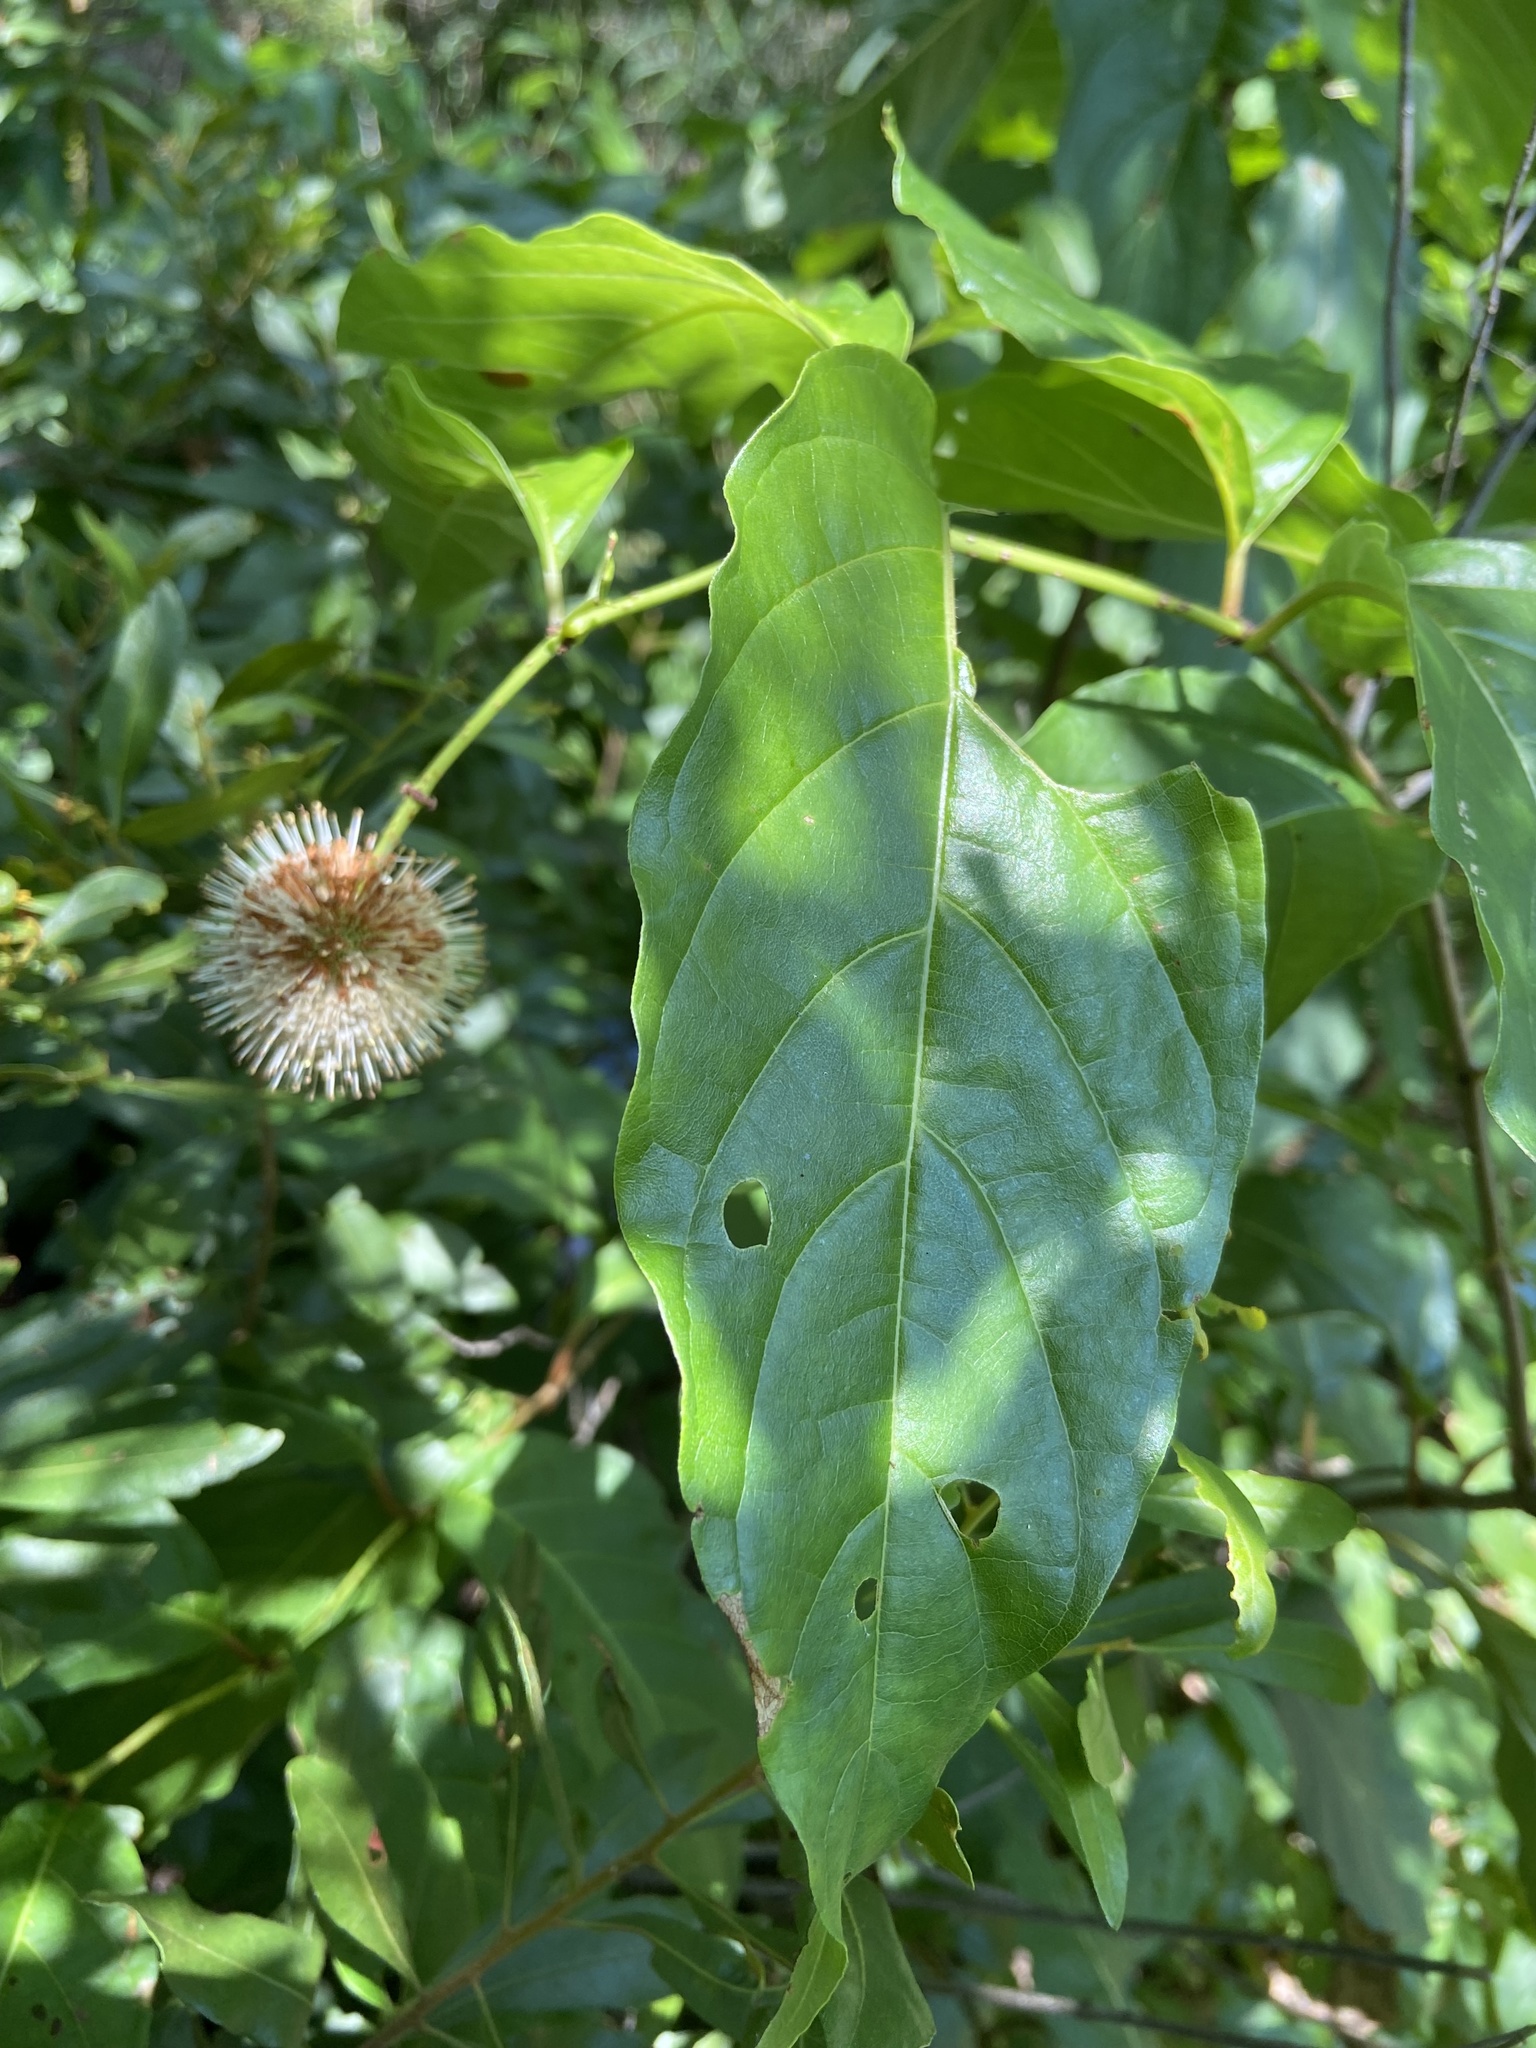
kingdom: Plantae
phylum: Tracheophyta
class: Magnoliopsida
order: Gentianales
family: Rubiaceae
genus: Cephalanthus
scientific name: Cephalanthus occidentalis
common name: Button-willow
